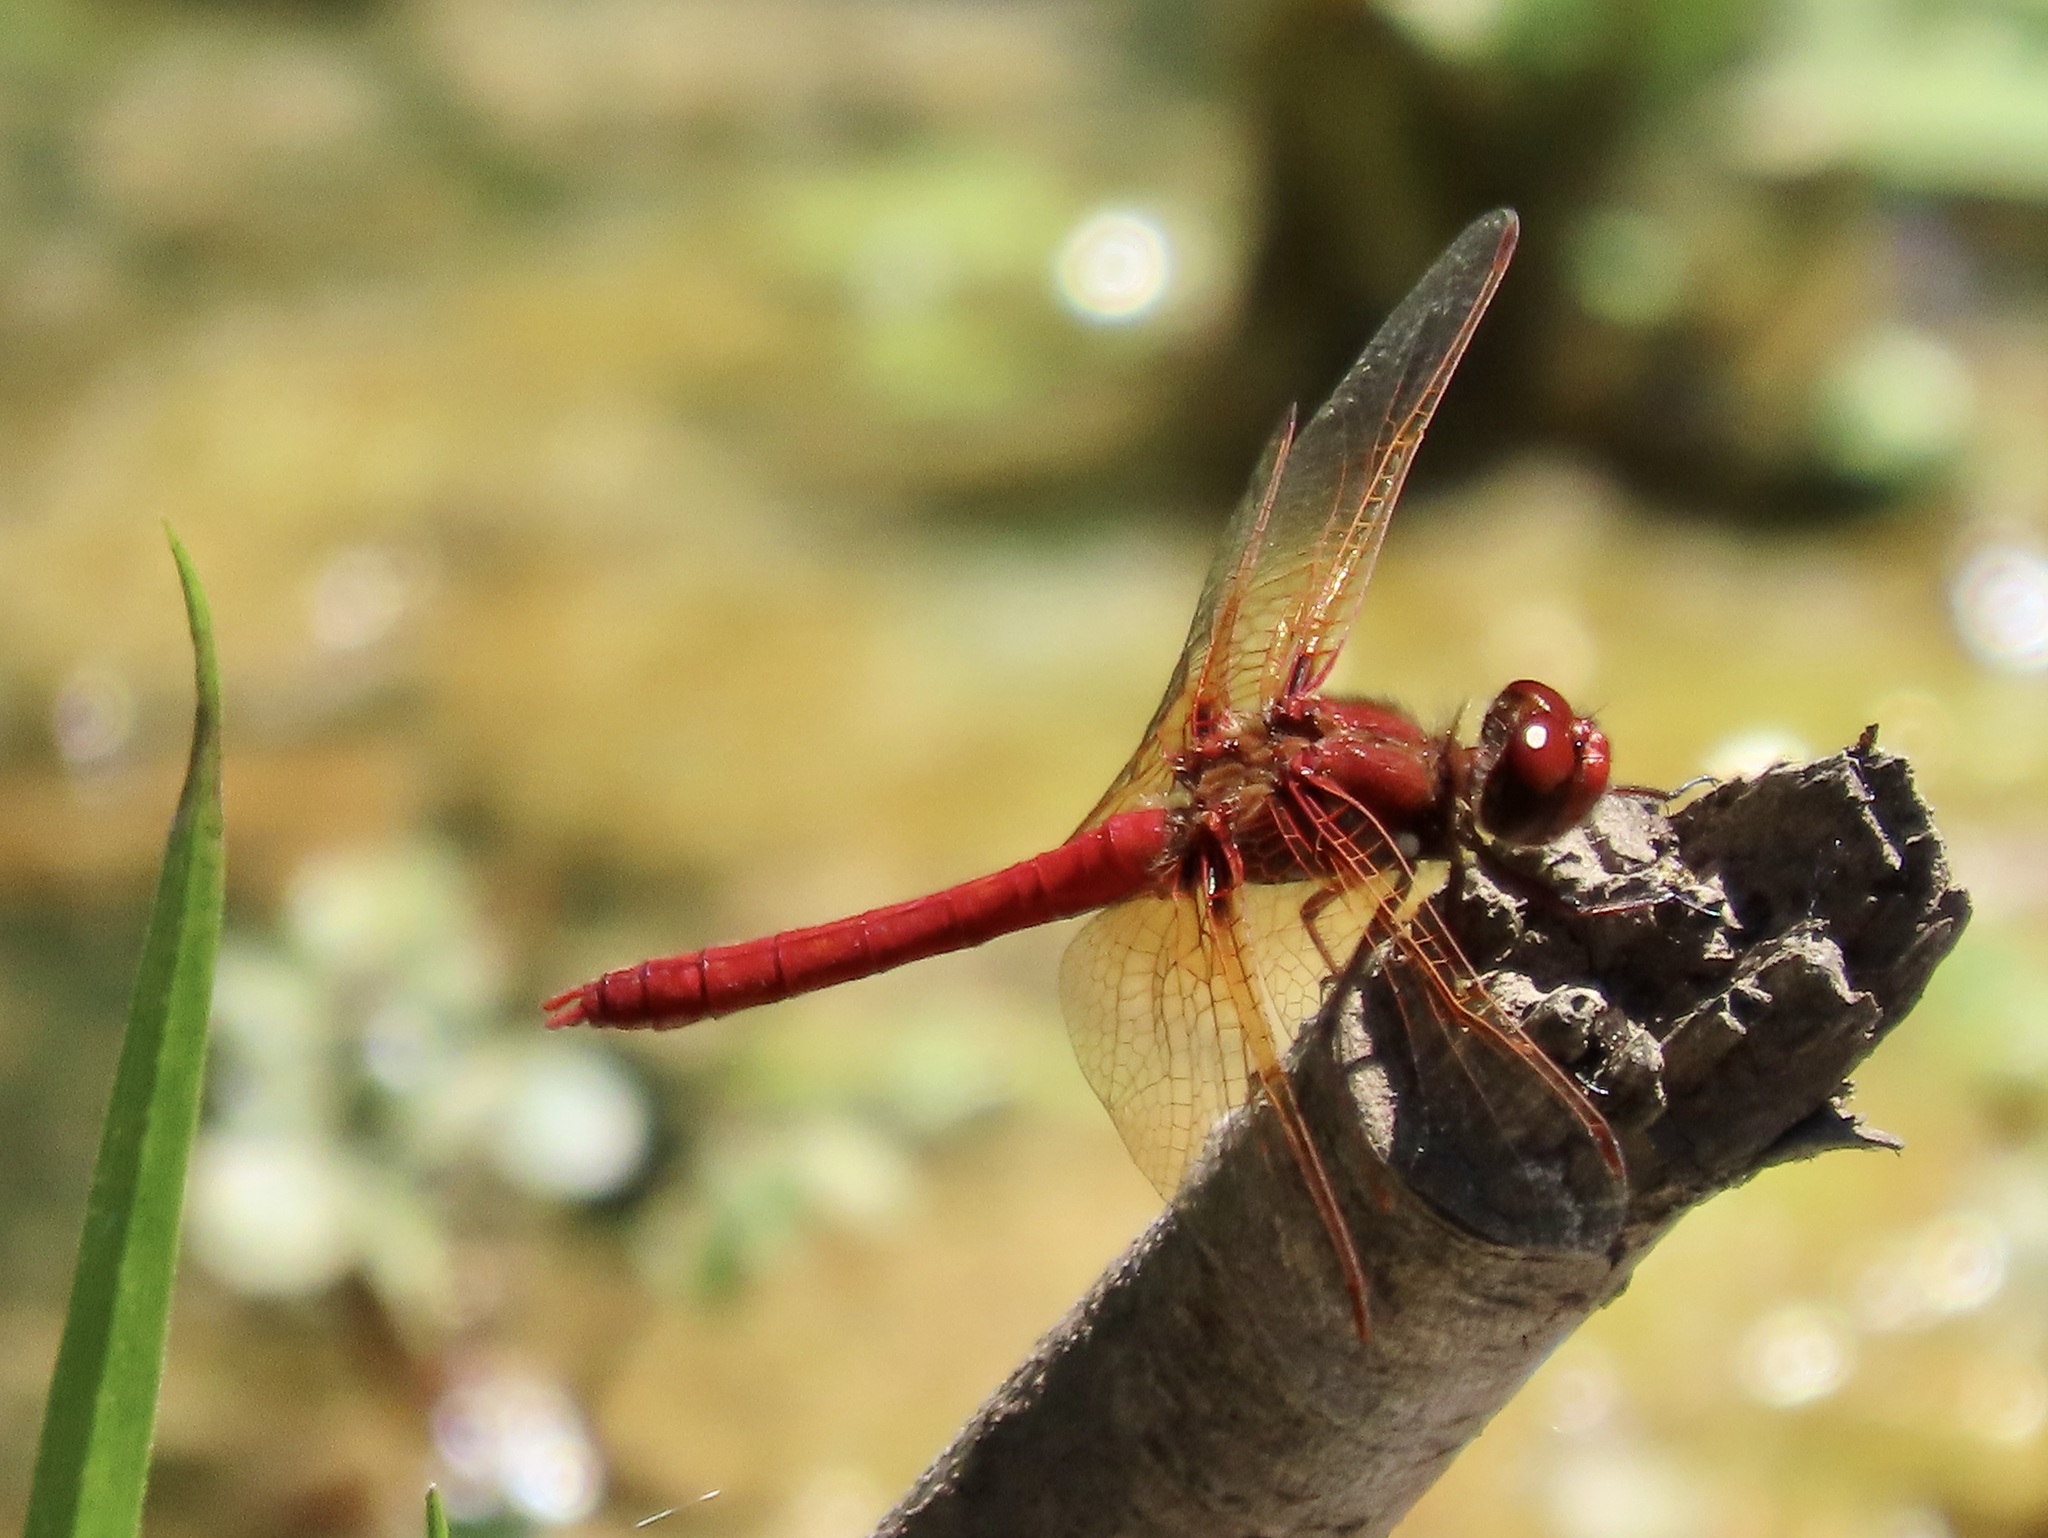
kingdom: Animalia
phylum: Arthropoda
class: Insecta
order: Odonata
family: Libellulidae
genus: Sympetrum
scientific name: Sympetrum illotum
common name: Cardinal meadowhawk
